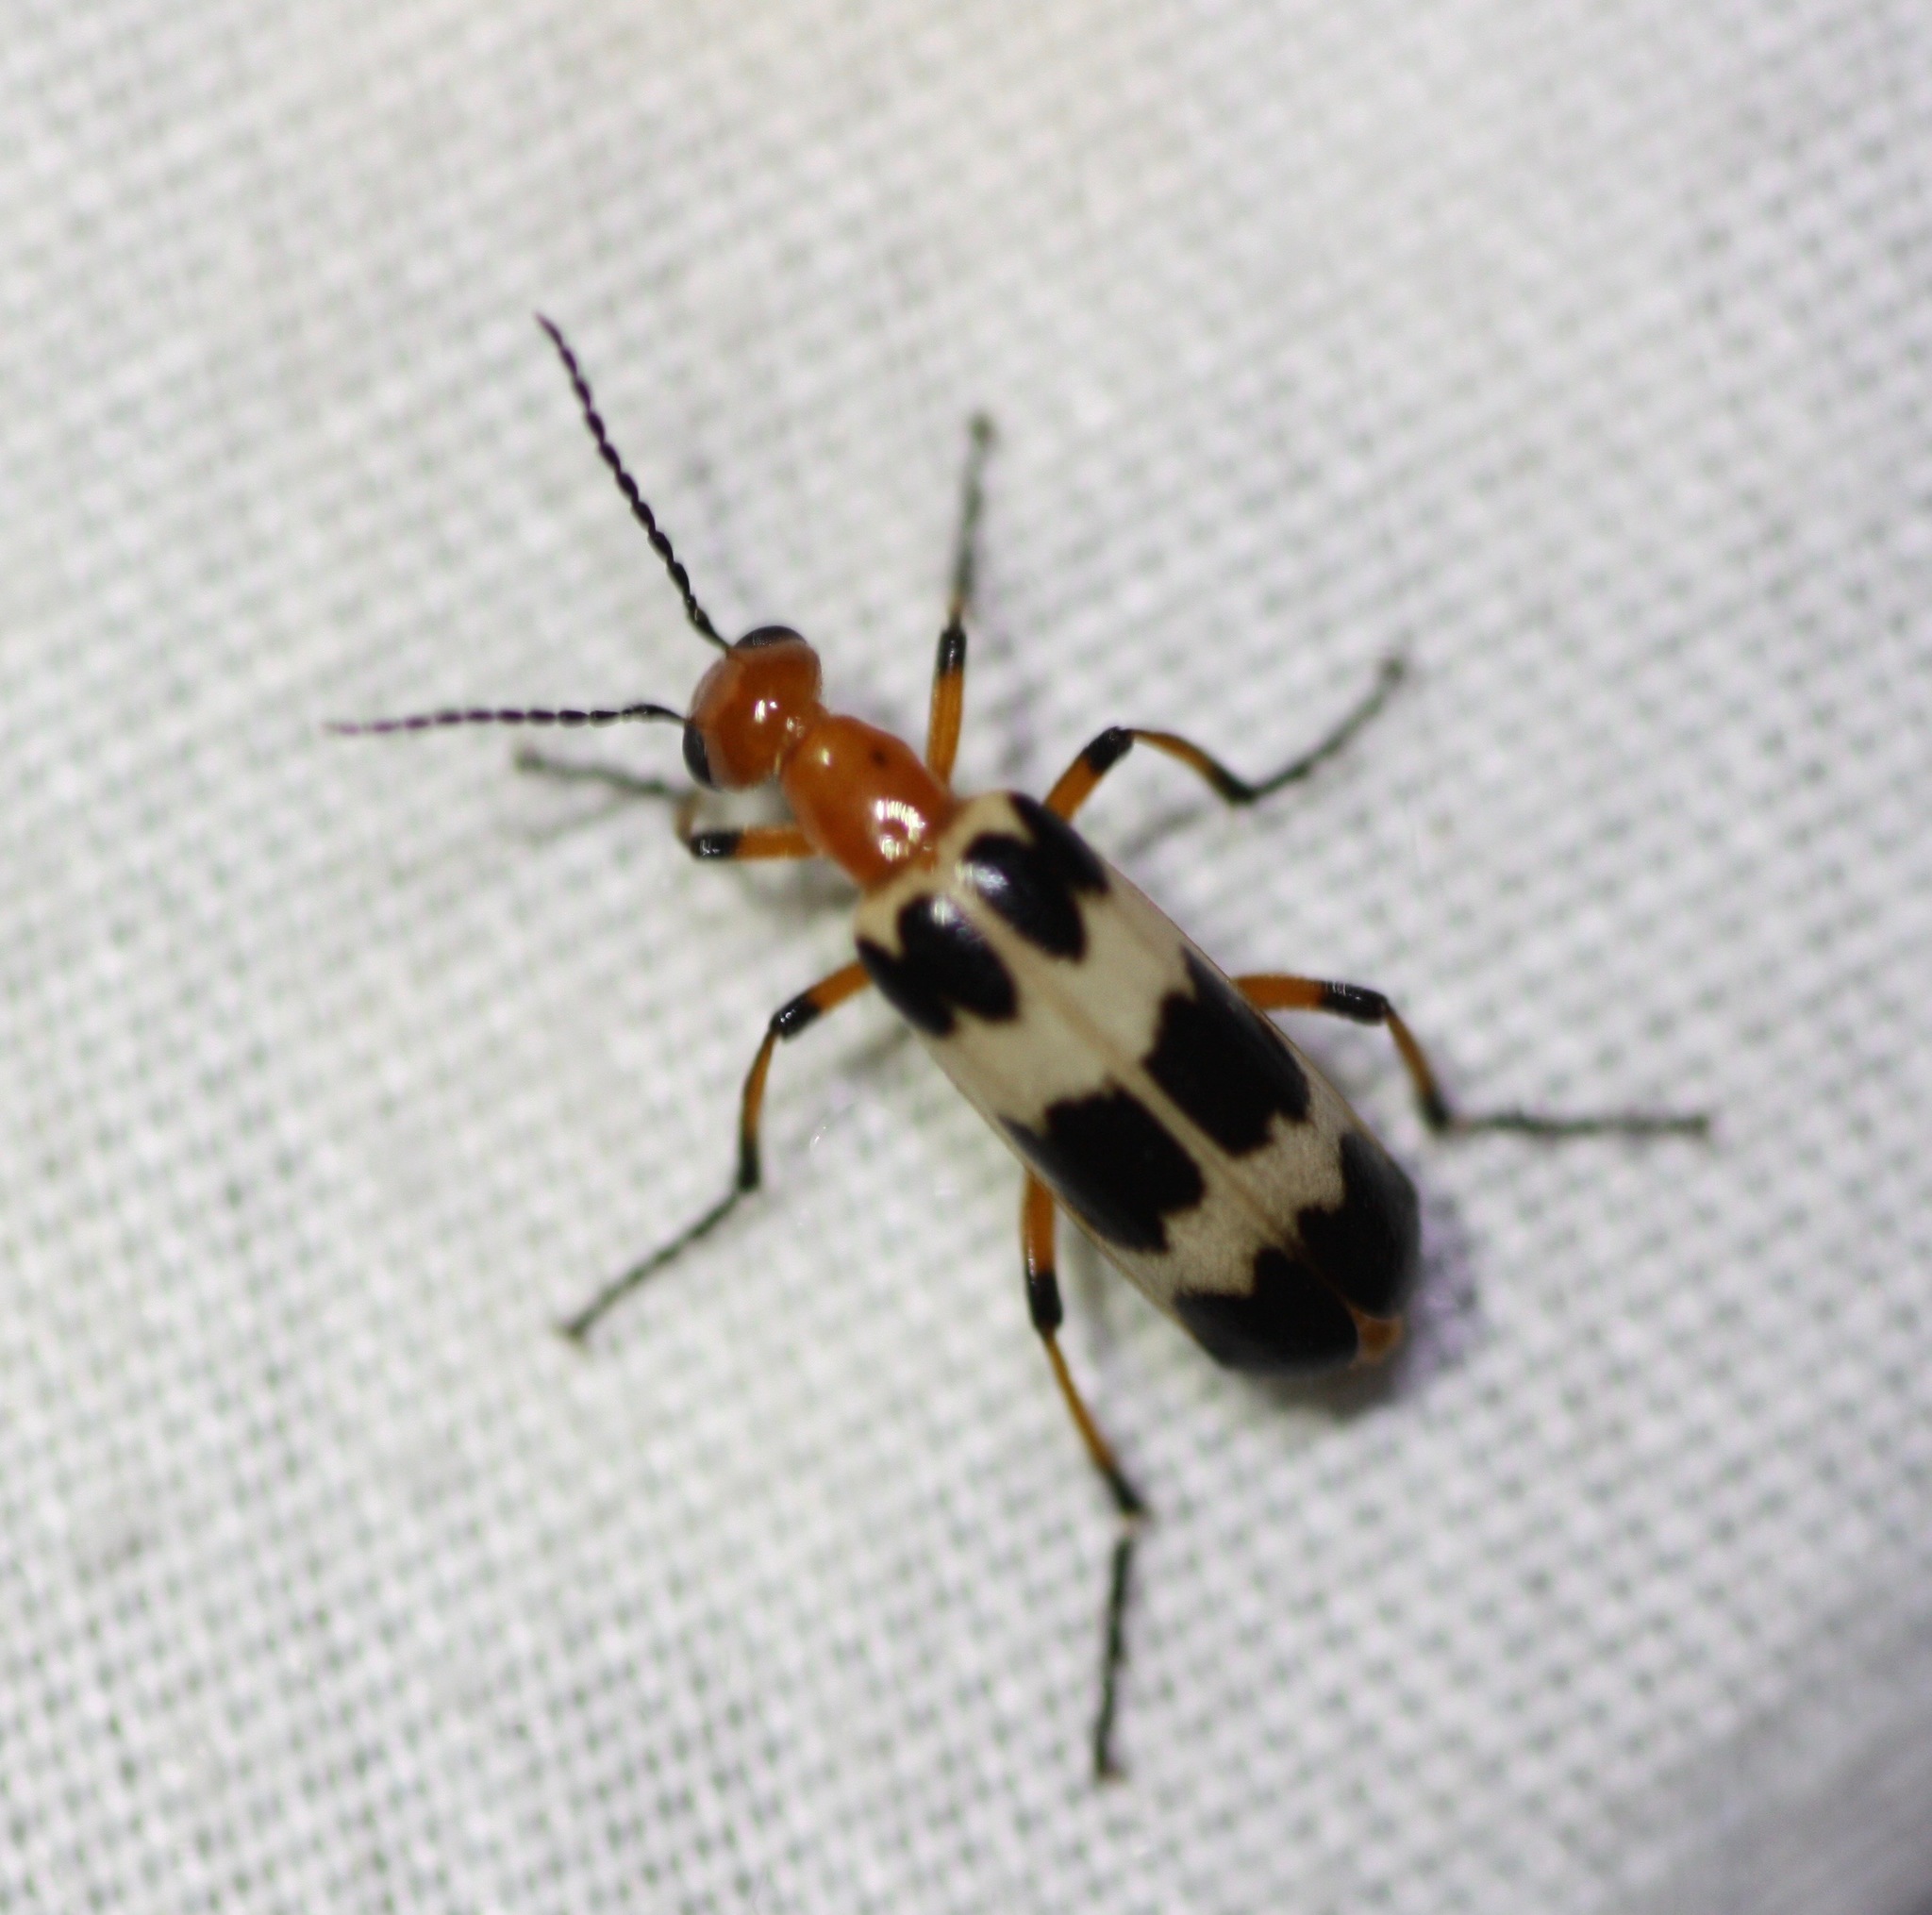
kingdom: Animalia
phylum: Arthropoda
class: Insecta
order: Coleoptera
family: Meloidae
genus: Pyrota
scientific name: Pyrota palpalis
